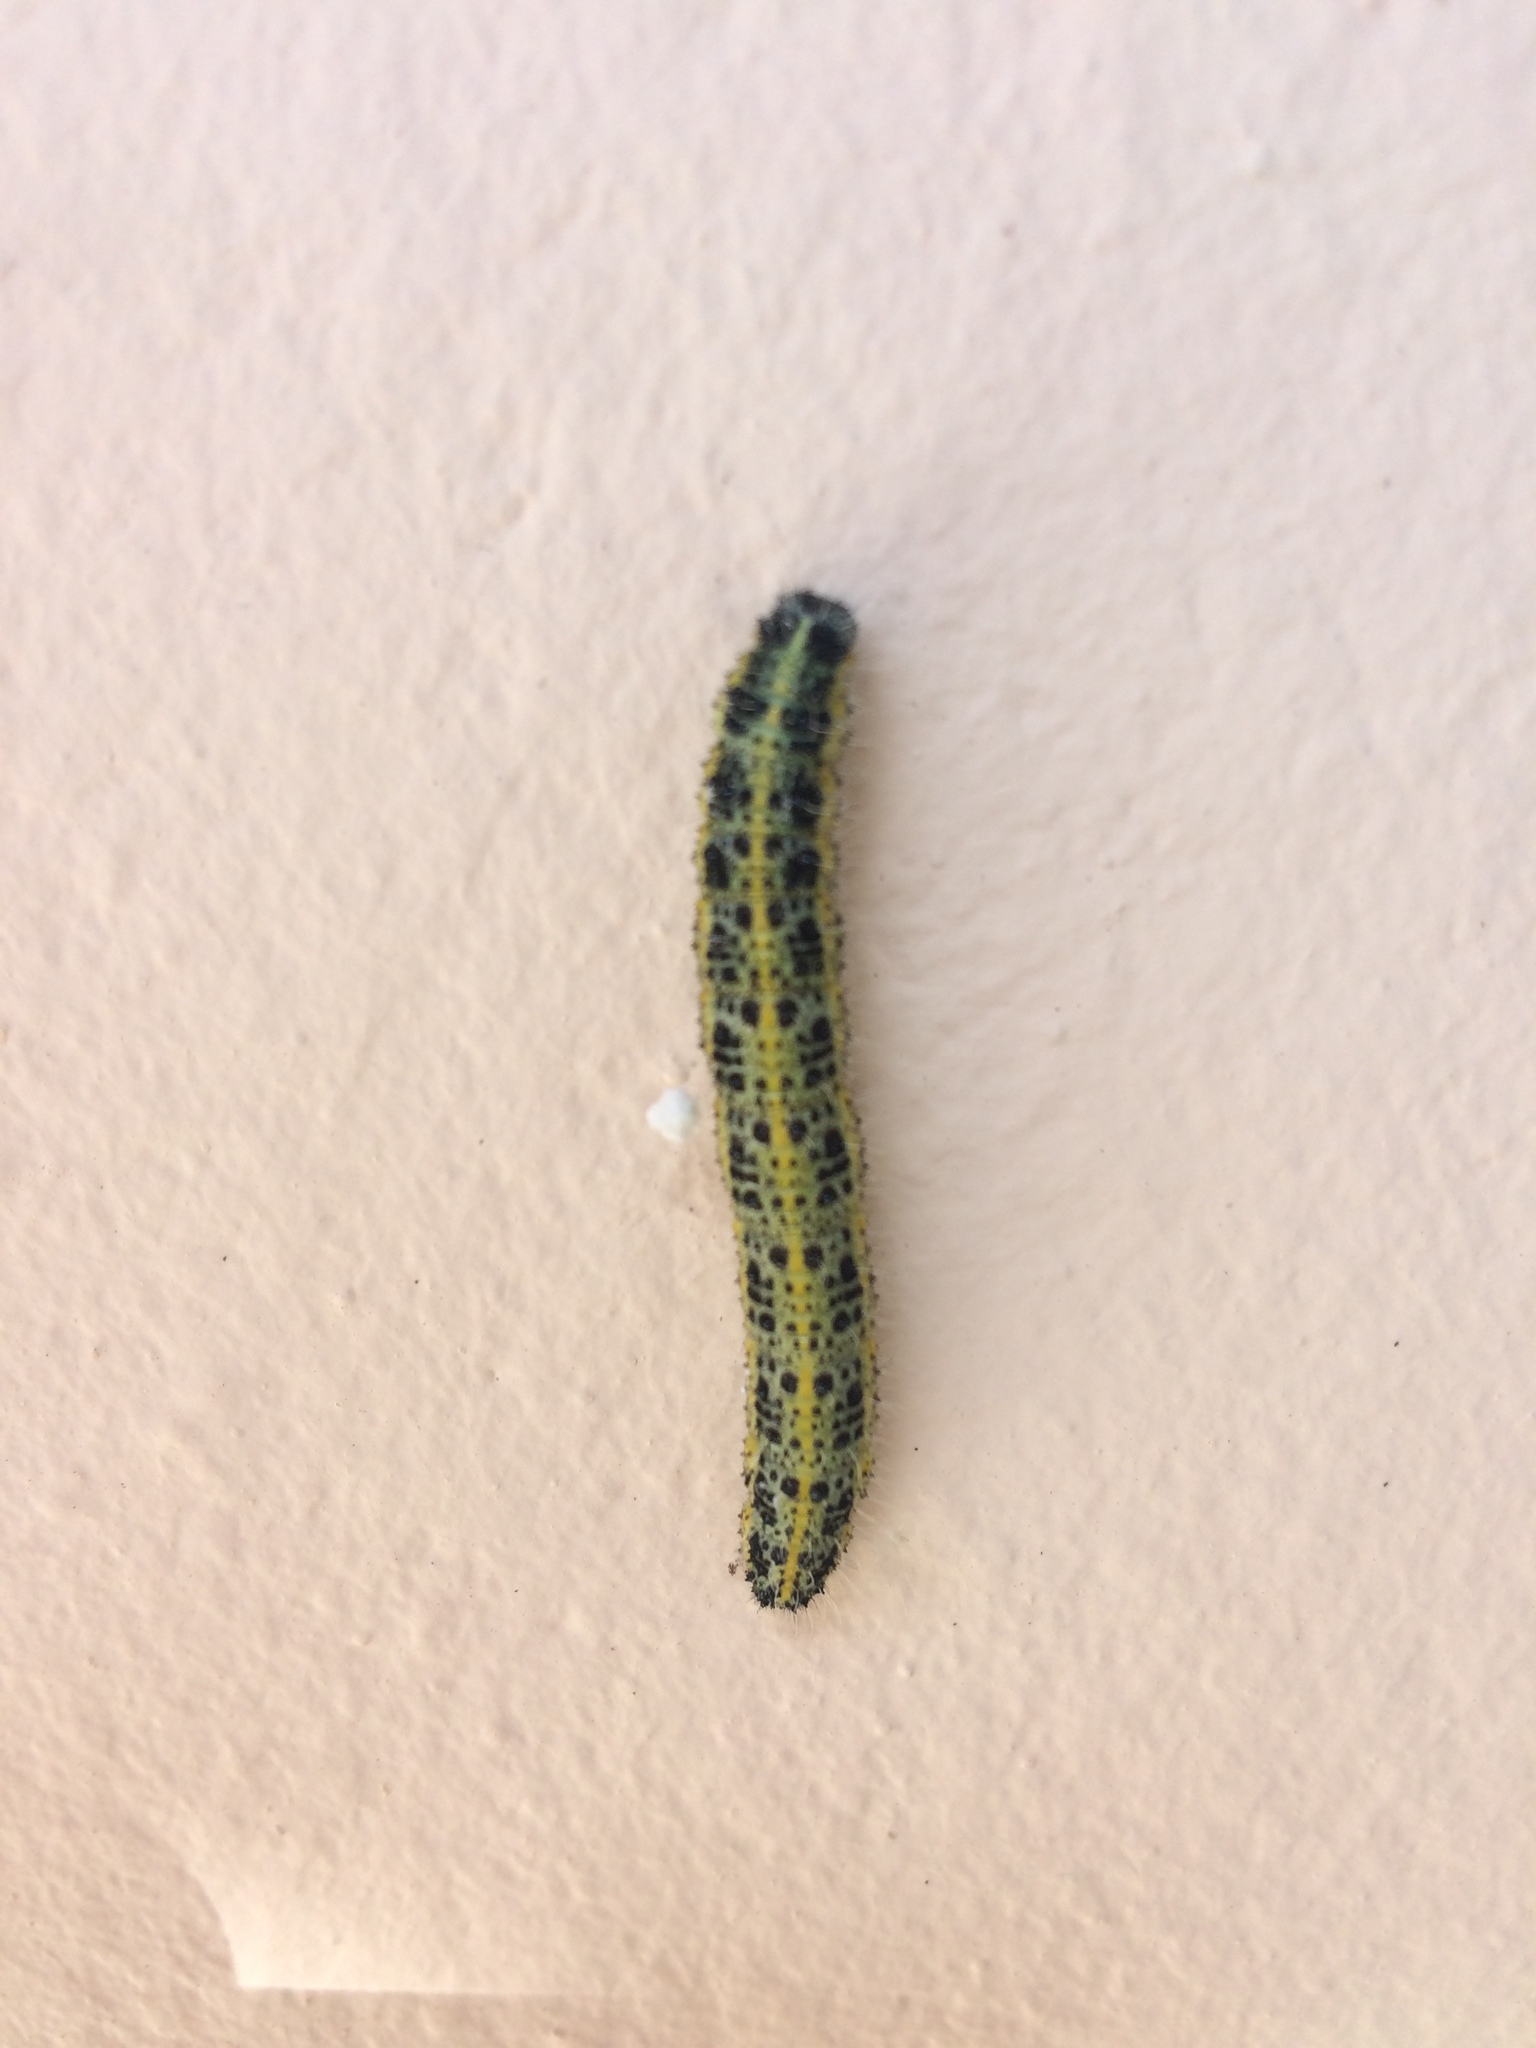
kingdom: Animalia
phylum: Arthropoda
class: Insecta
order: Lepidoptera
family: Pieridae
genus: Pieris
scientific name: Pieris brassicae
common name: Large white
